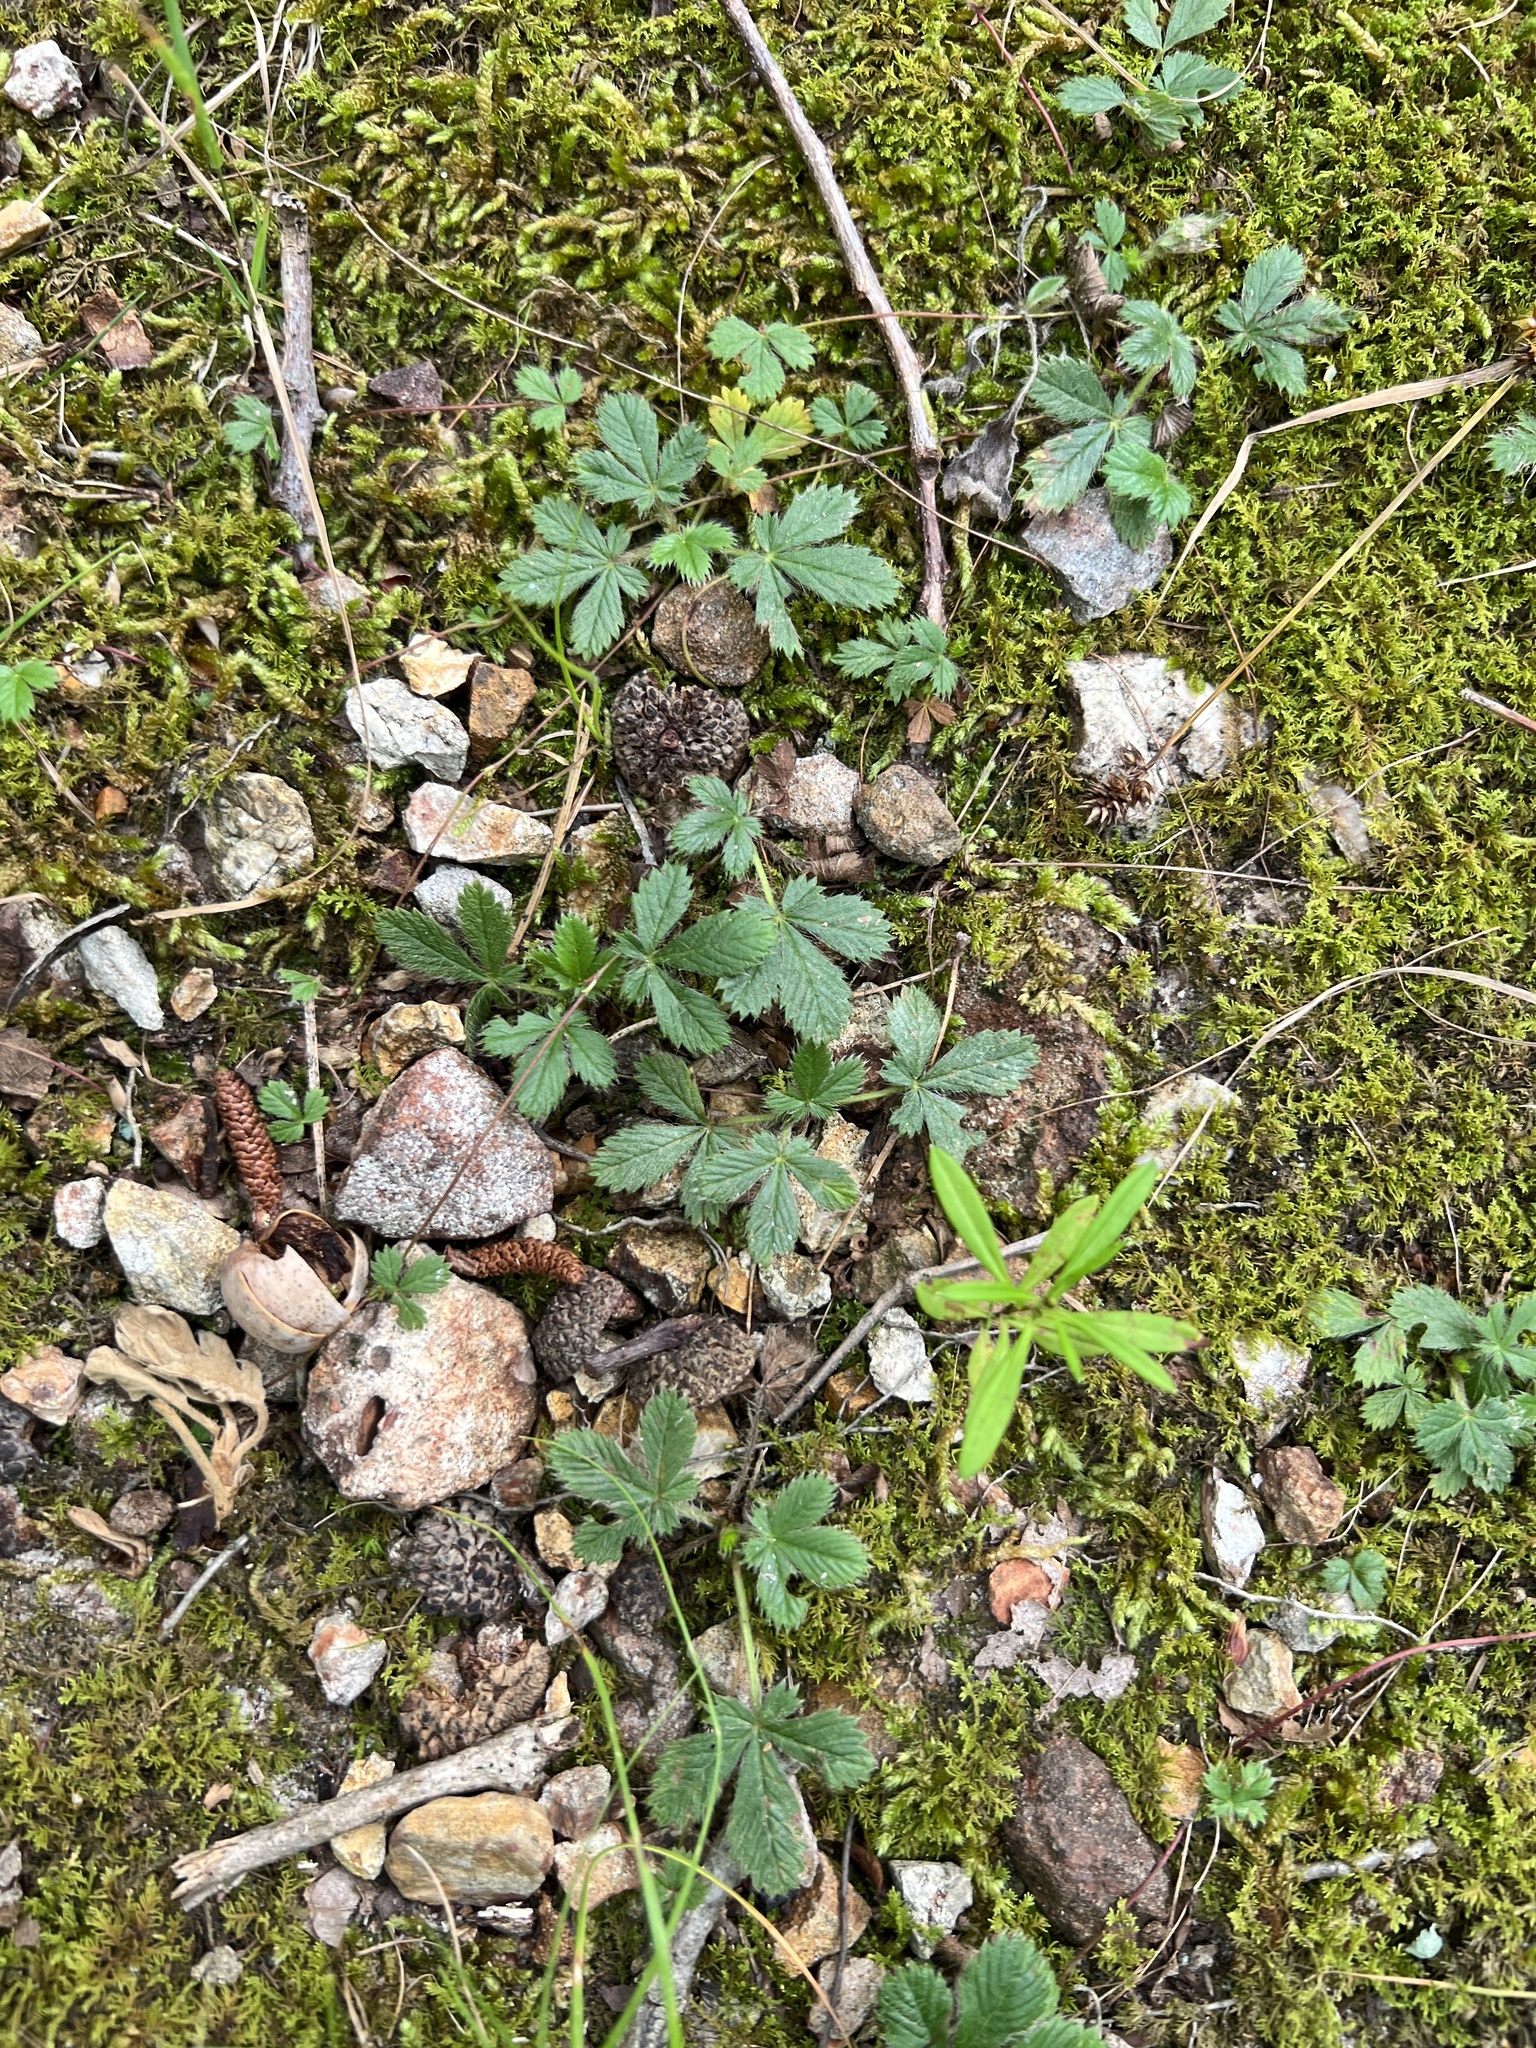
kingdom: Plantae
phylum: Tracheophyta
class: Magnoliopsida
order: Rosales
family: Rosaceae
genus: Potentilla
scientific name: Potentilla canadensis
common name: Canada cinquefoil
